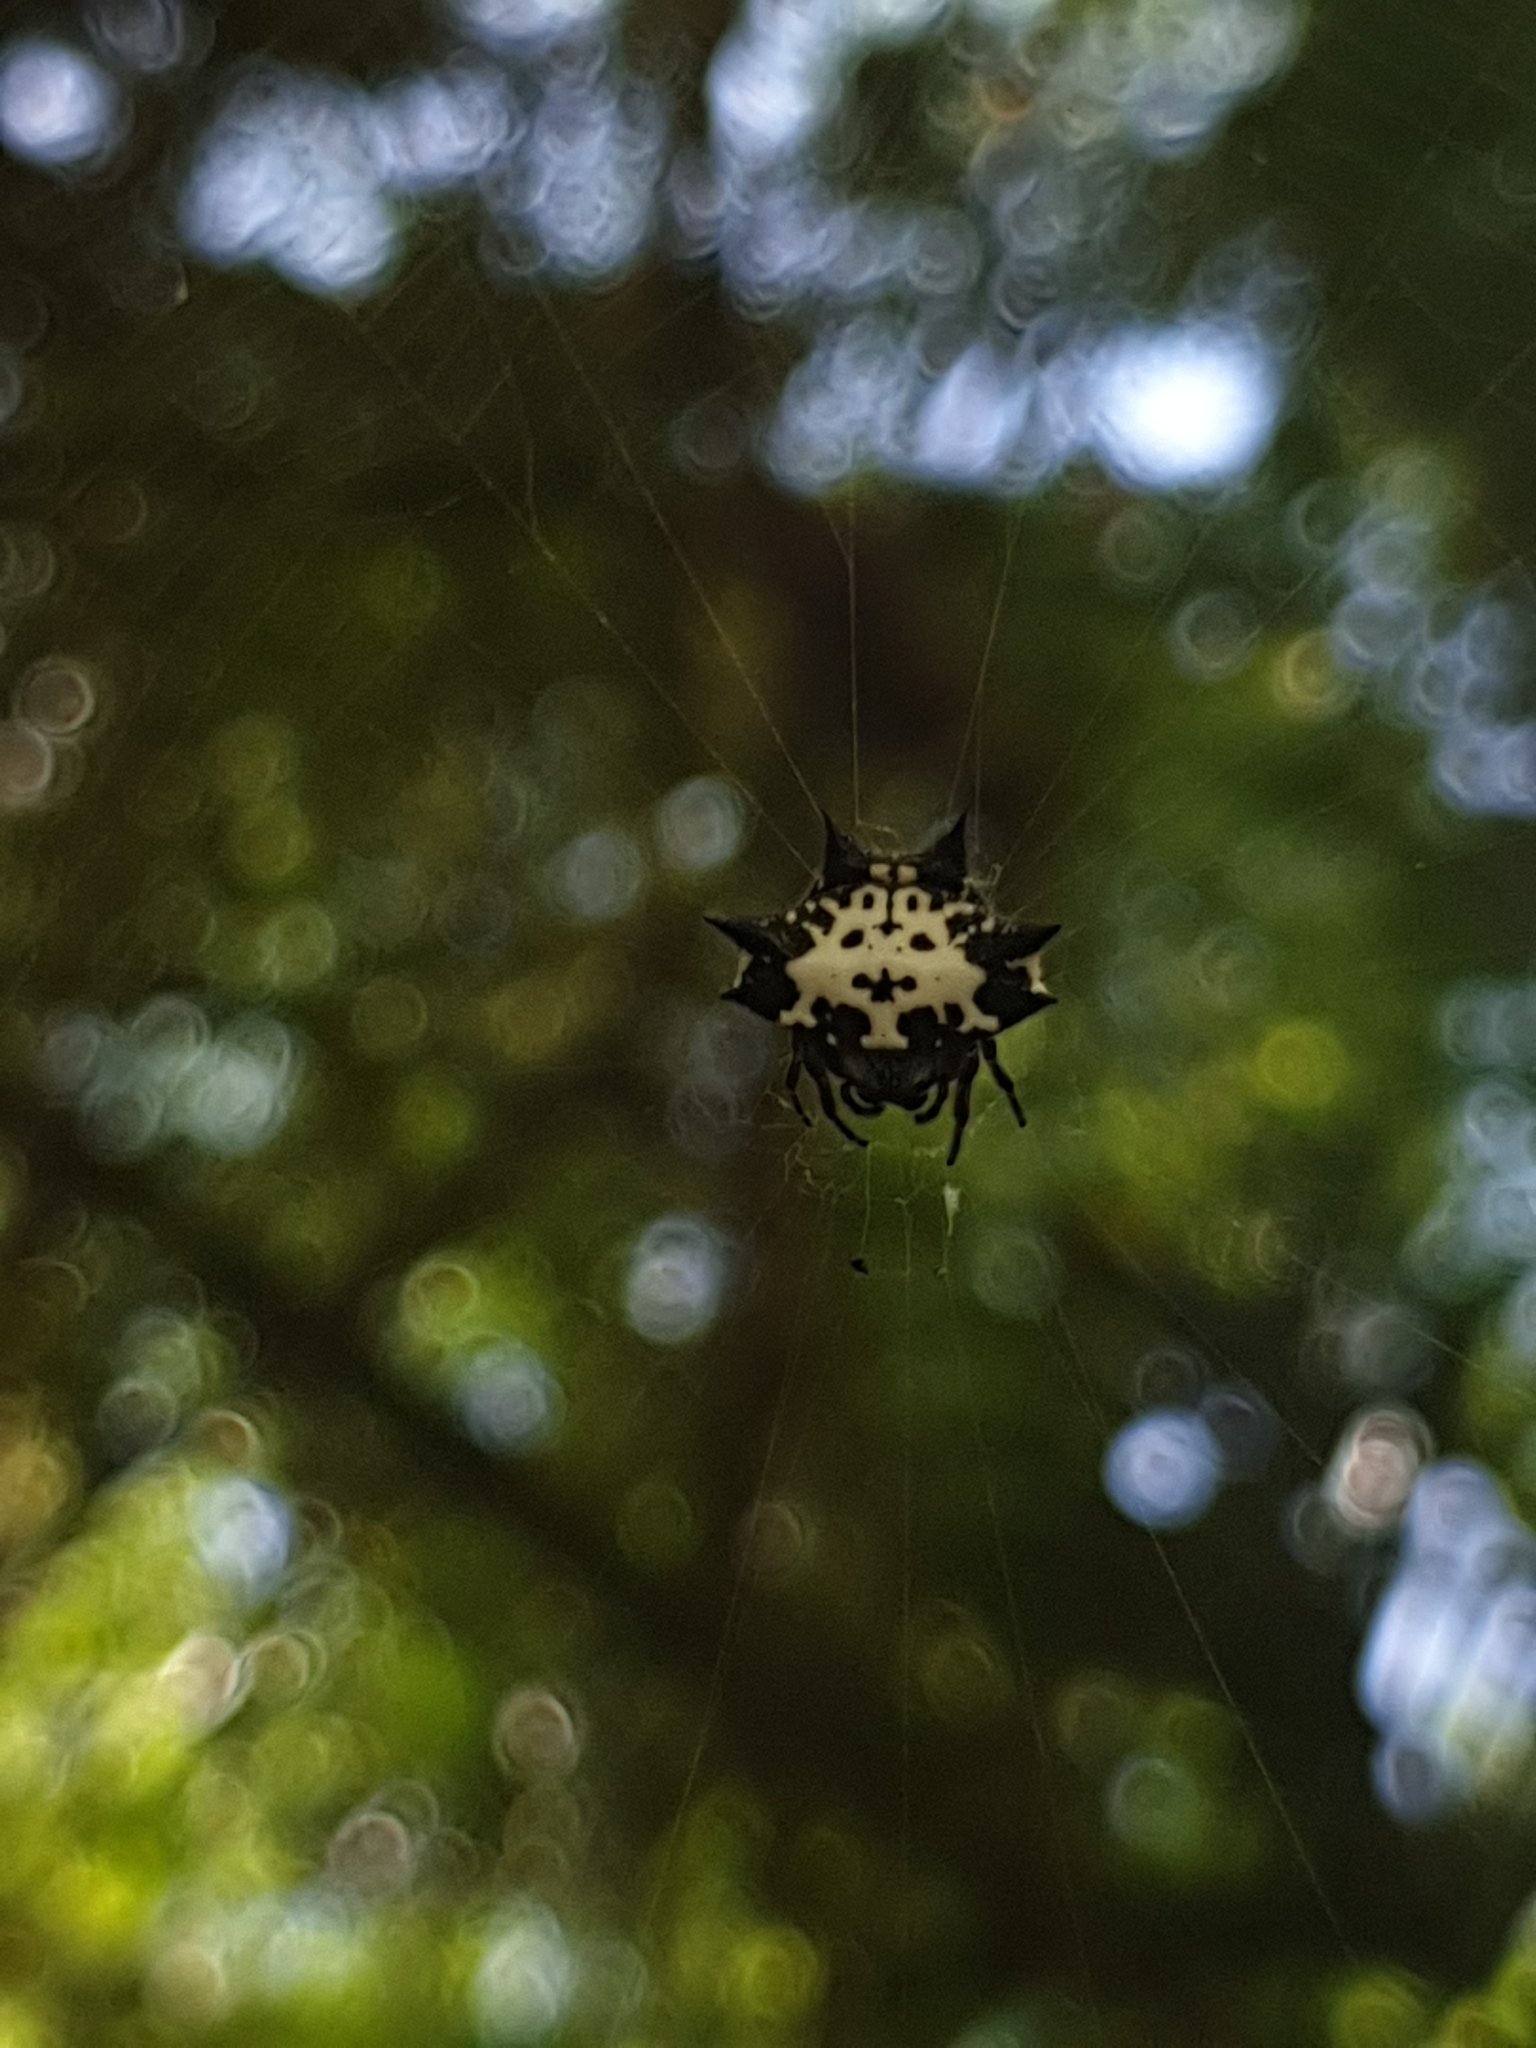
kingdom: Animalia
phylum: Arthropoda
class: Arachnida
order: Araneae
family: Araneidae
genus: Gasteracantha
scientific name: Gasteracantha kuhli
